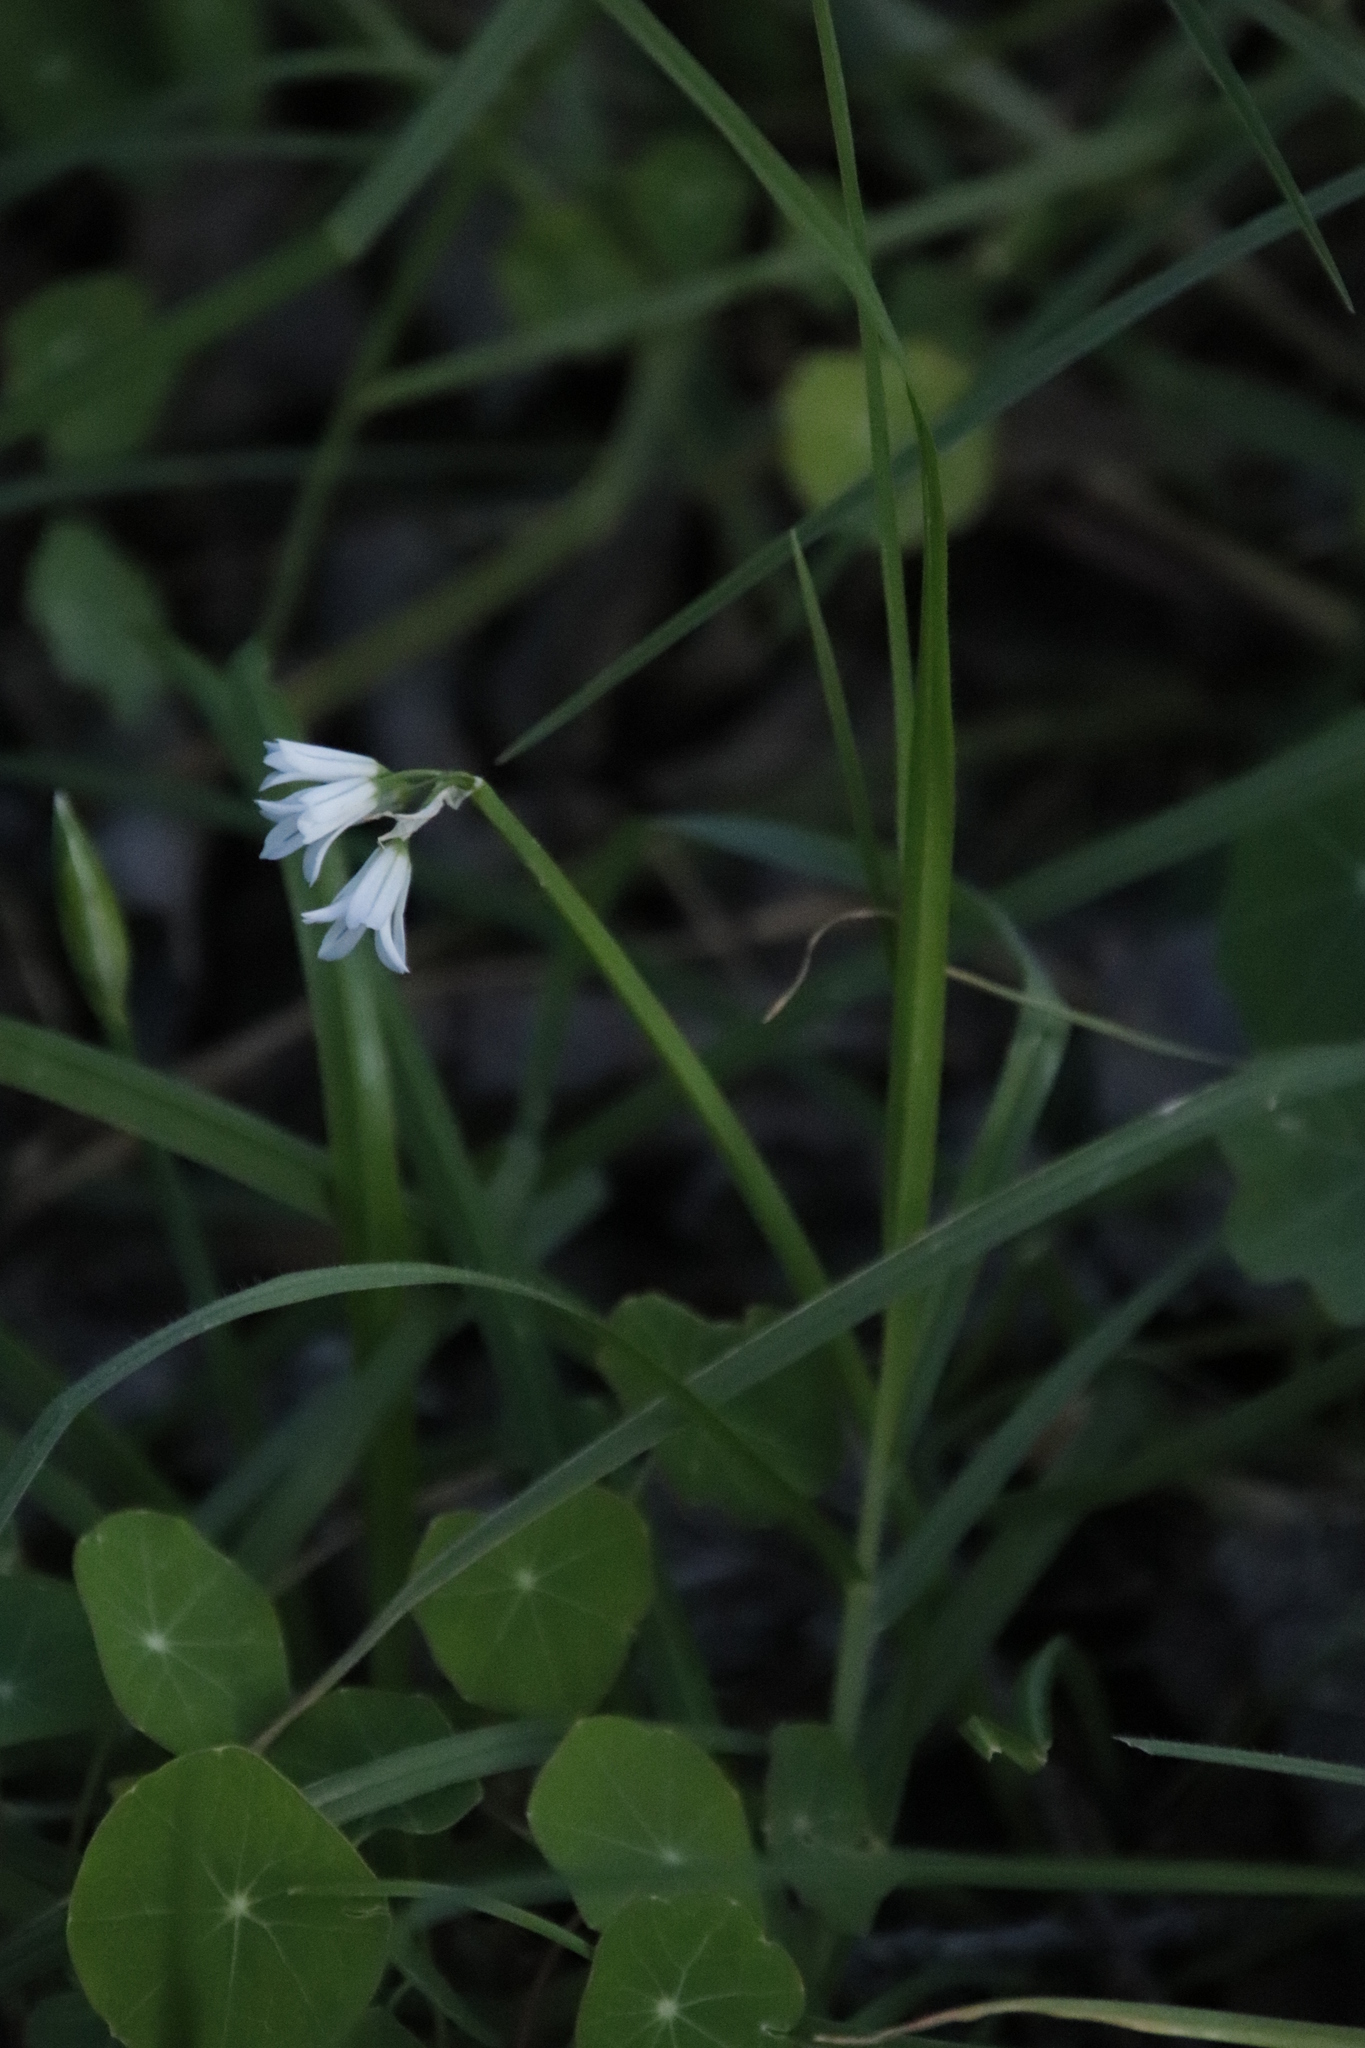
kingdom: Plantae
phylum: Tracheophyta
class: Liliopsida
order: Asparagales
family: Amaryllidaceae
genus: Allium
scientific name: Allium triquetrum
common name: Three-cornered garlic
